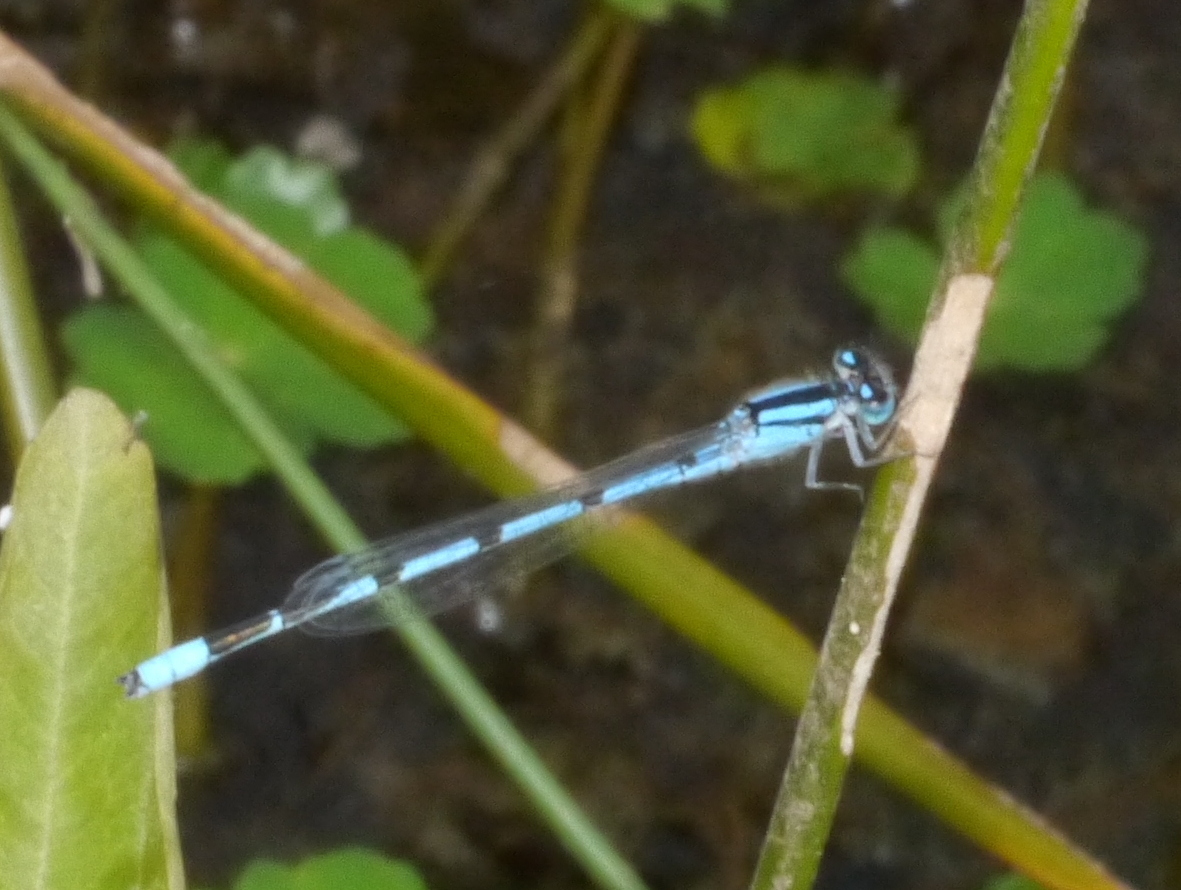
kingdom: Animalia
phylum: Arthropoda
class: Insecta
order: Odonata
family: Coenagrionidae
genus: Enallagma
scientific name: Enallagma civile
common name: Damselfly
